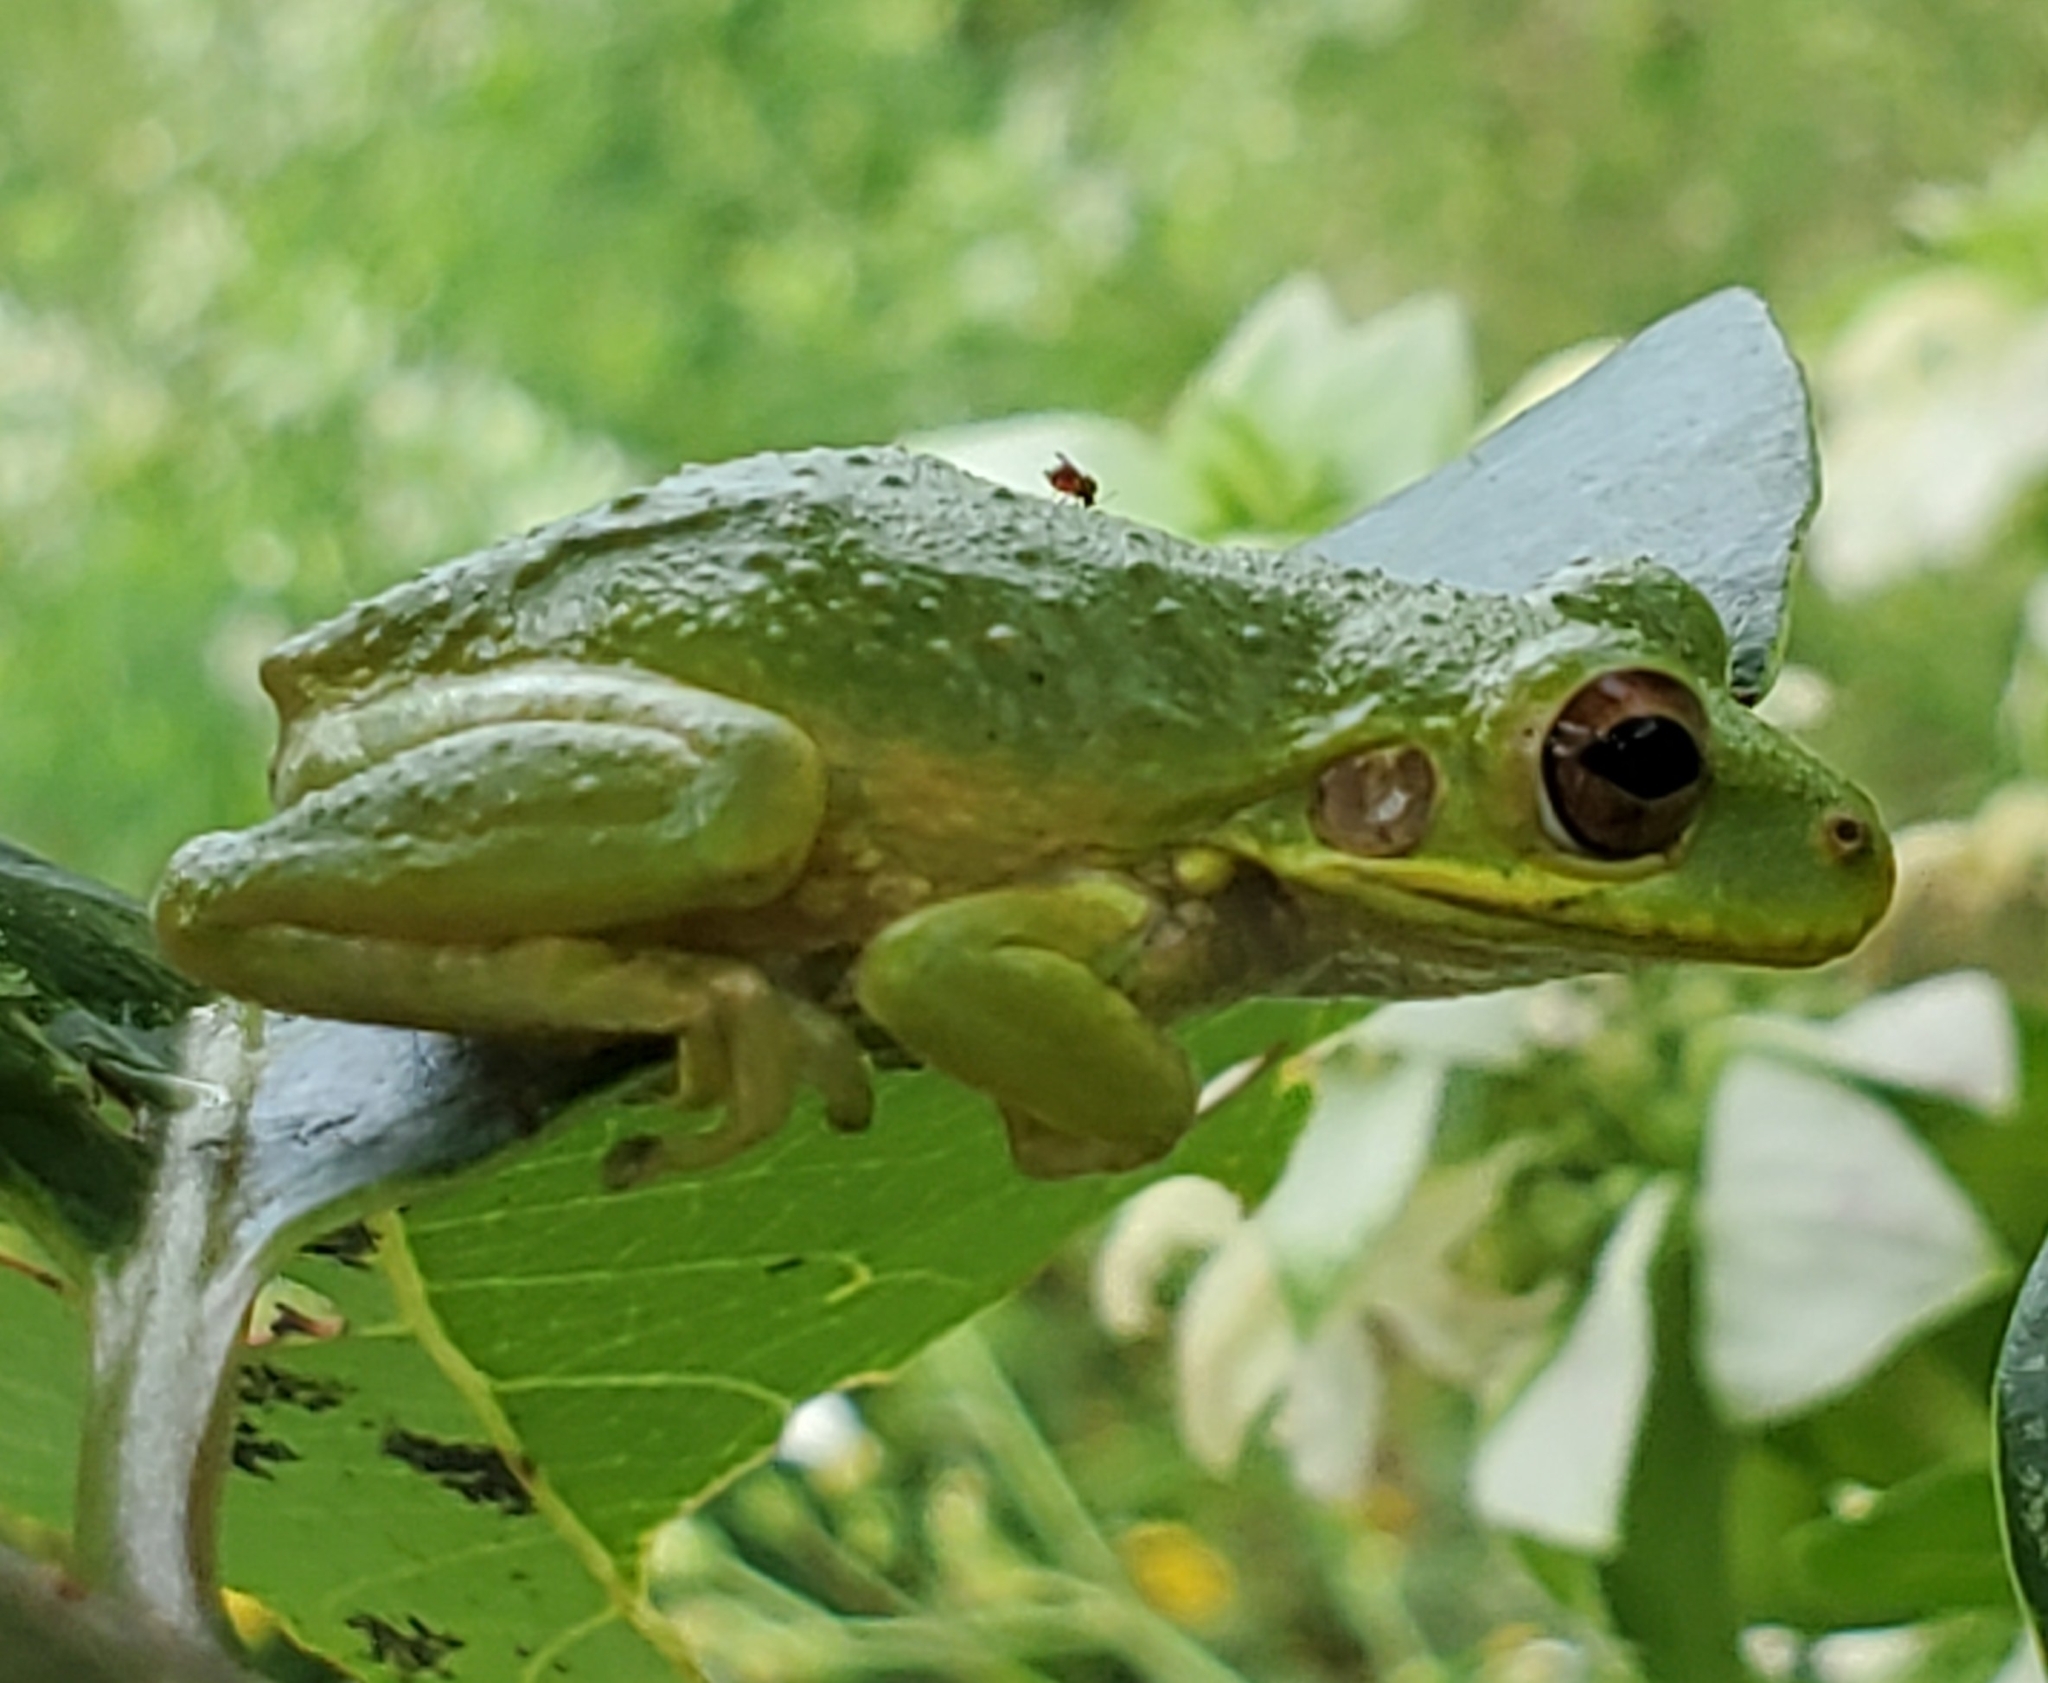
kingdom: Animalia
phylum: Chordata
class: Amphibia
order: Anura
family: Hylidae
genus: Osteopilus
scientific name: Osteopilus septentrionalis
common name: Cuban treefrog
